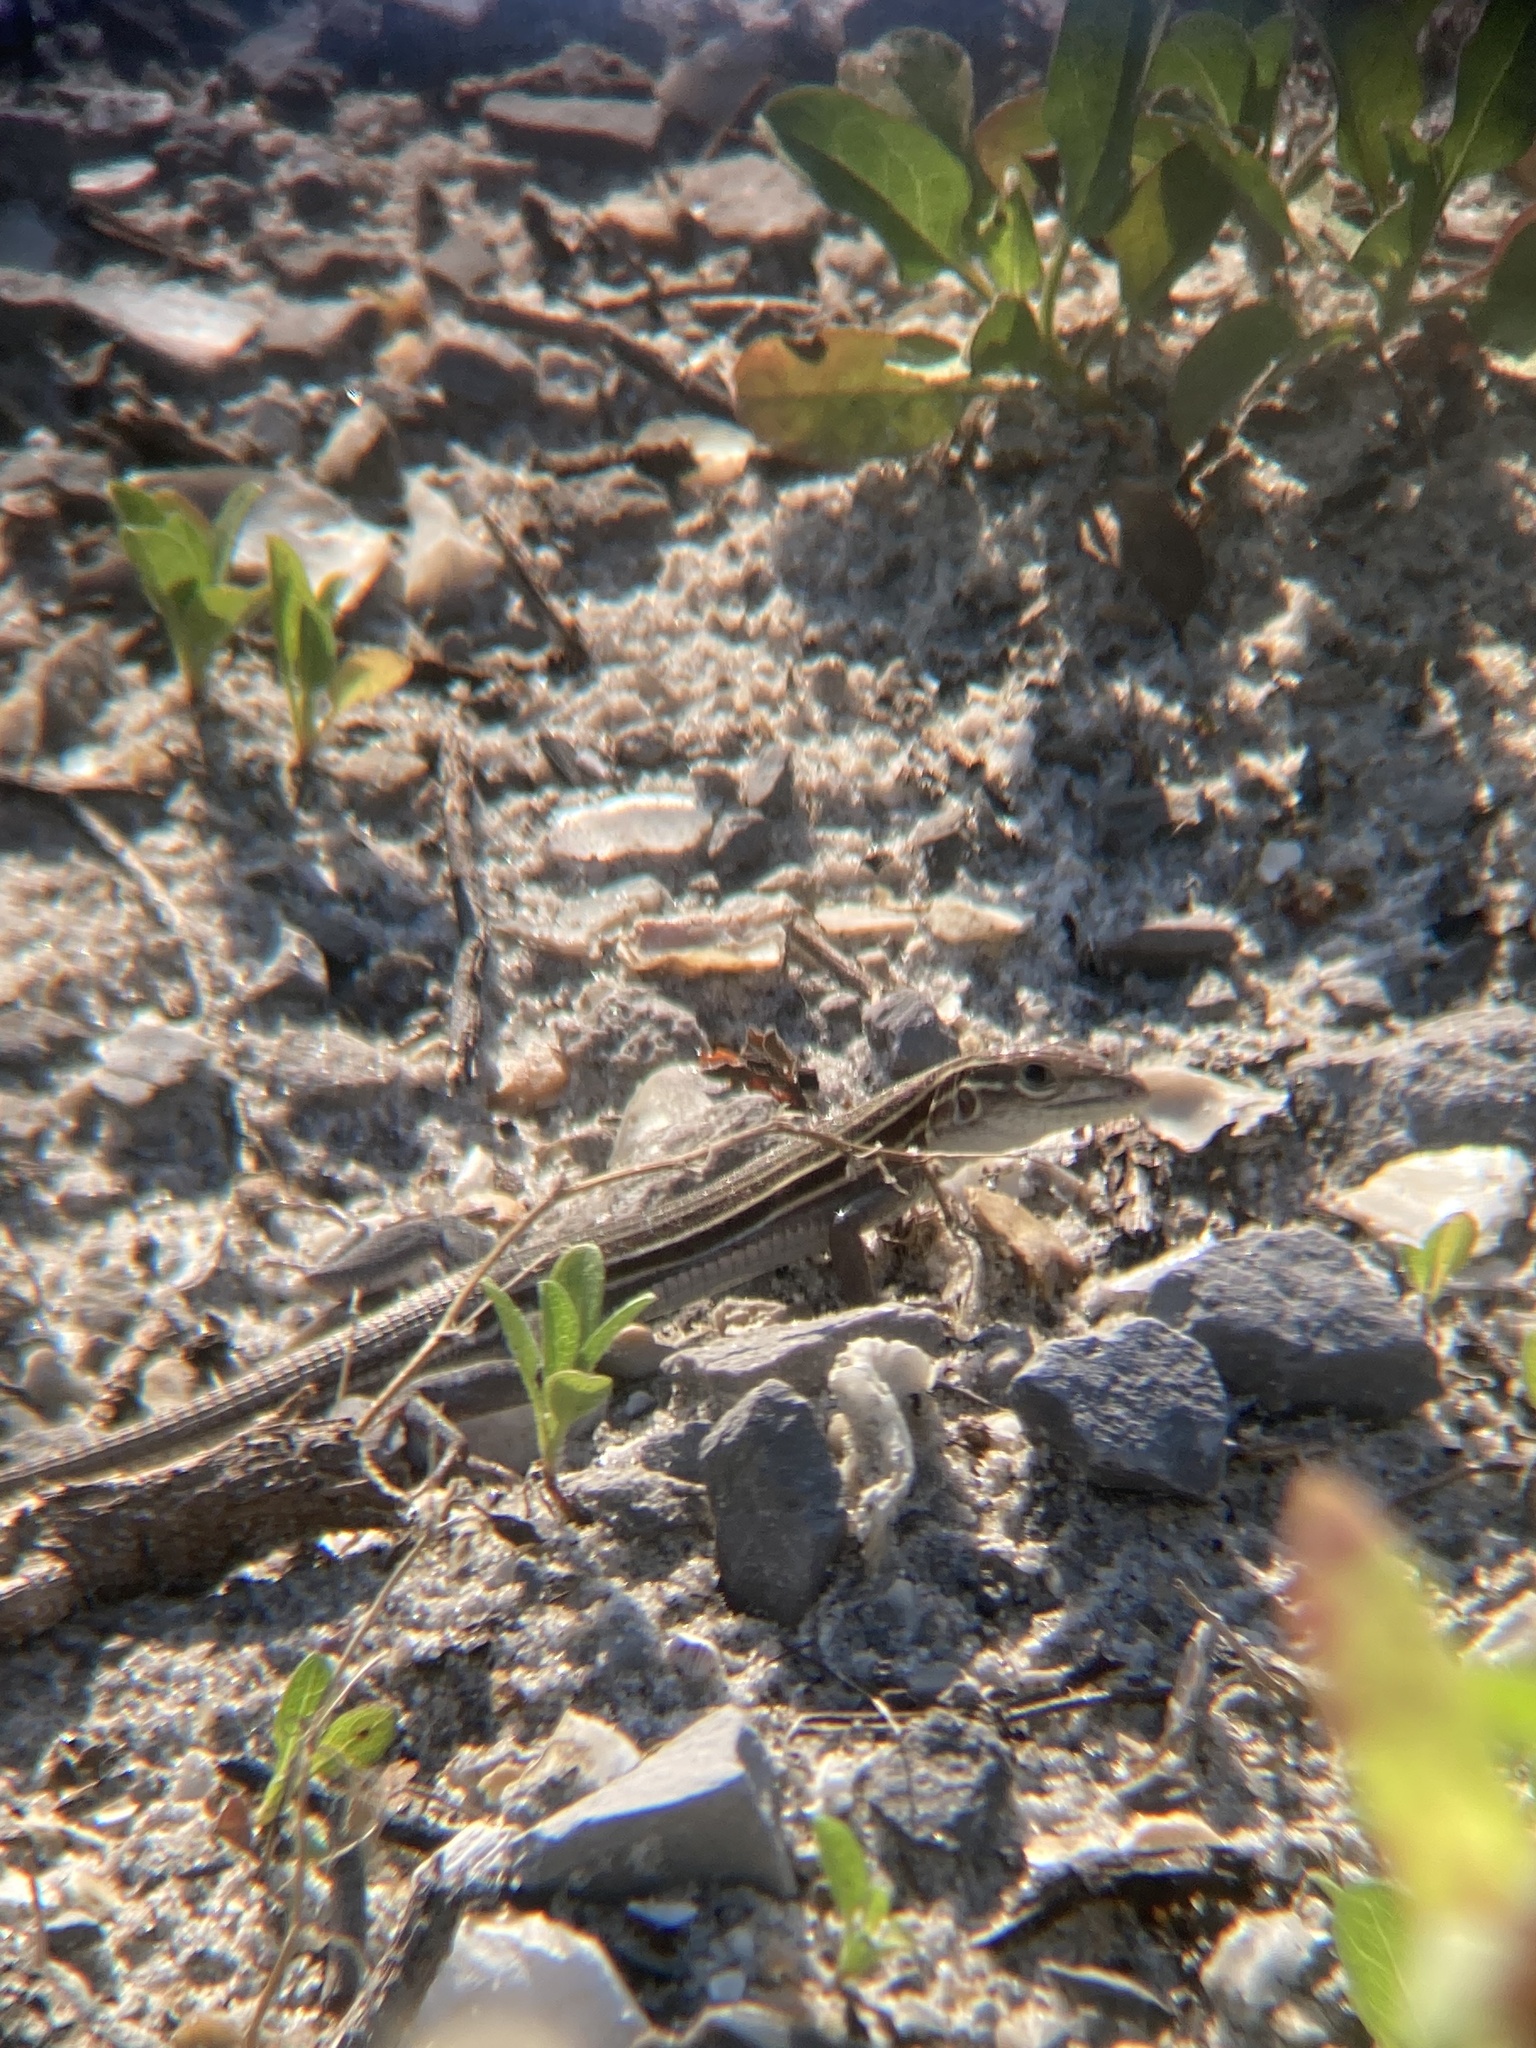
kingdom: Animalia
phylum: Chordata
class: Squamata
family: Teiidae
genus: Aspidoscelis
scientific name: Aspidoscelis sexlineatus
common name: Six-lined racerunner
